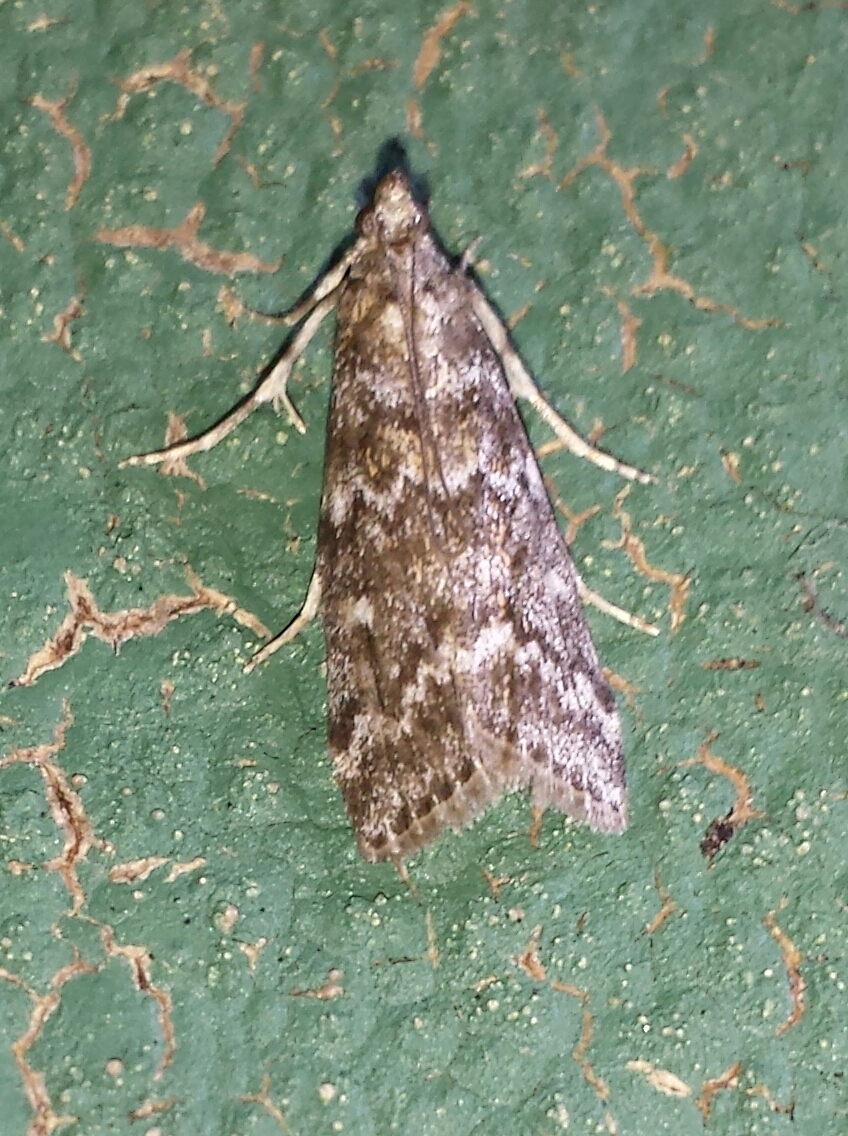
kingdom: Animalia
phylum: Arthropoda
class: Insecta
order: Lepidoptera
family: Pyralidae
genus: Dioryctria
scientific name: Dioryctria reniculelloides
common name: Spruce coneworm moth
